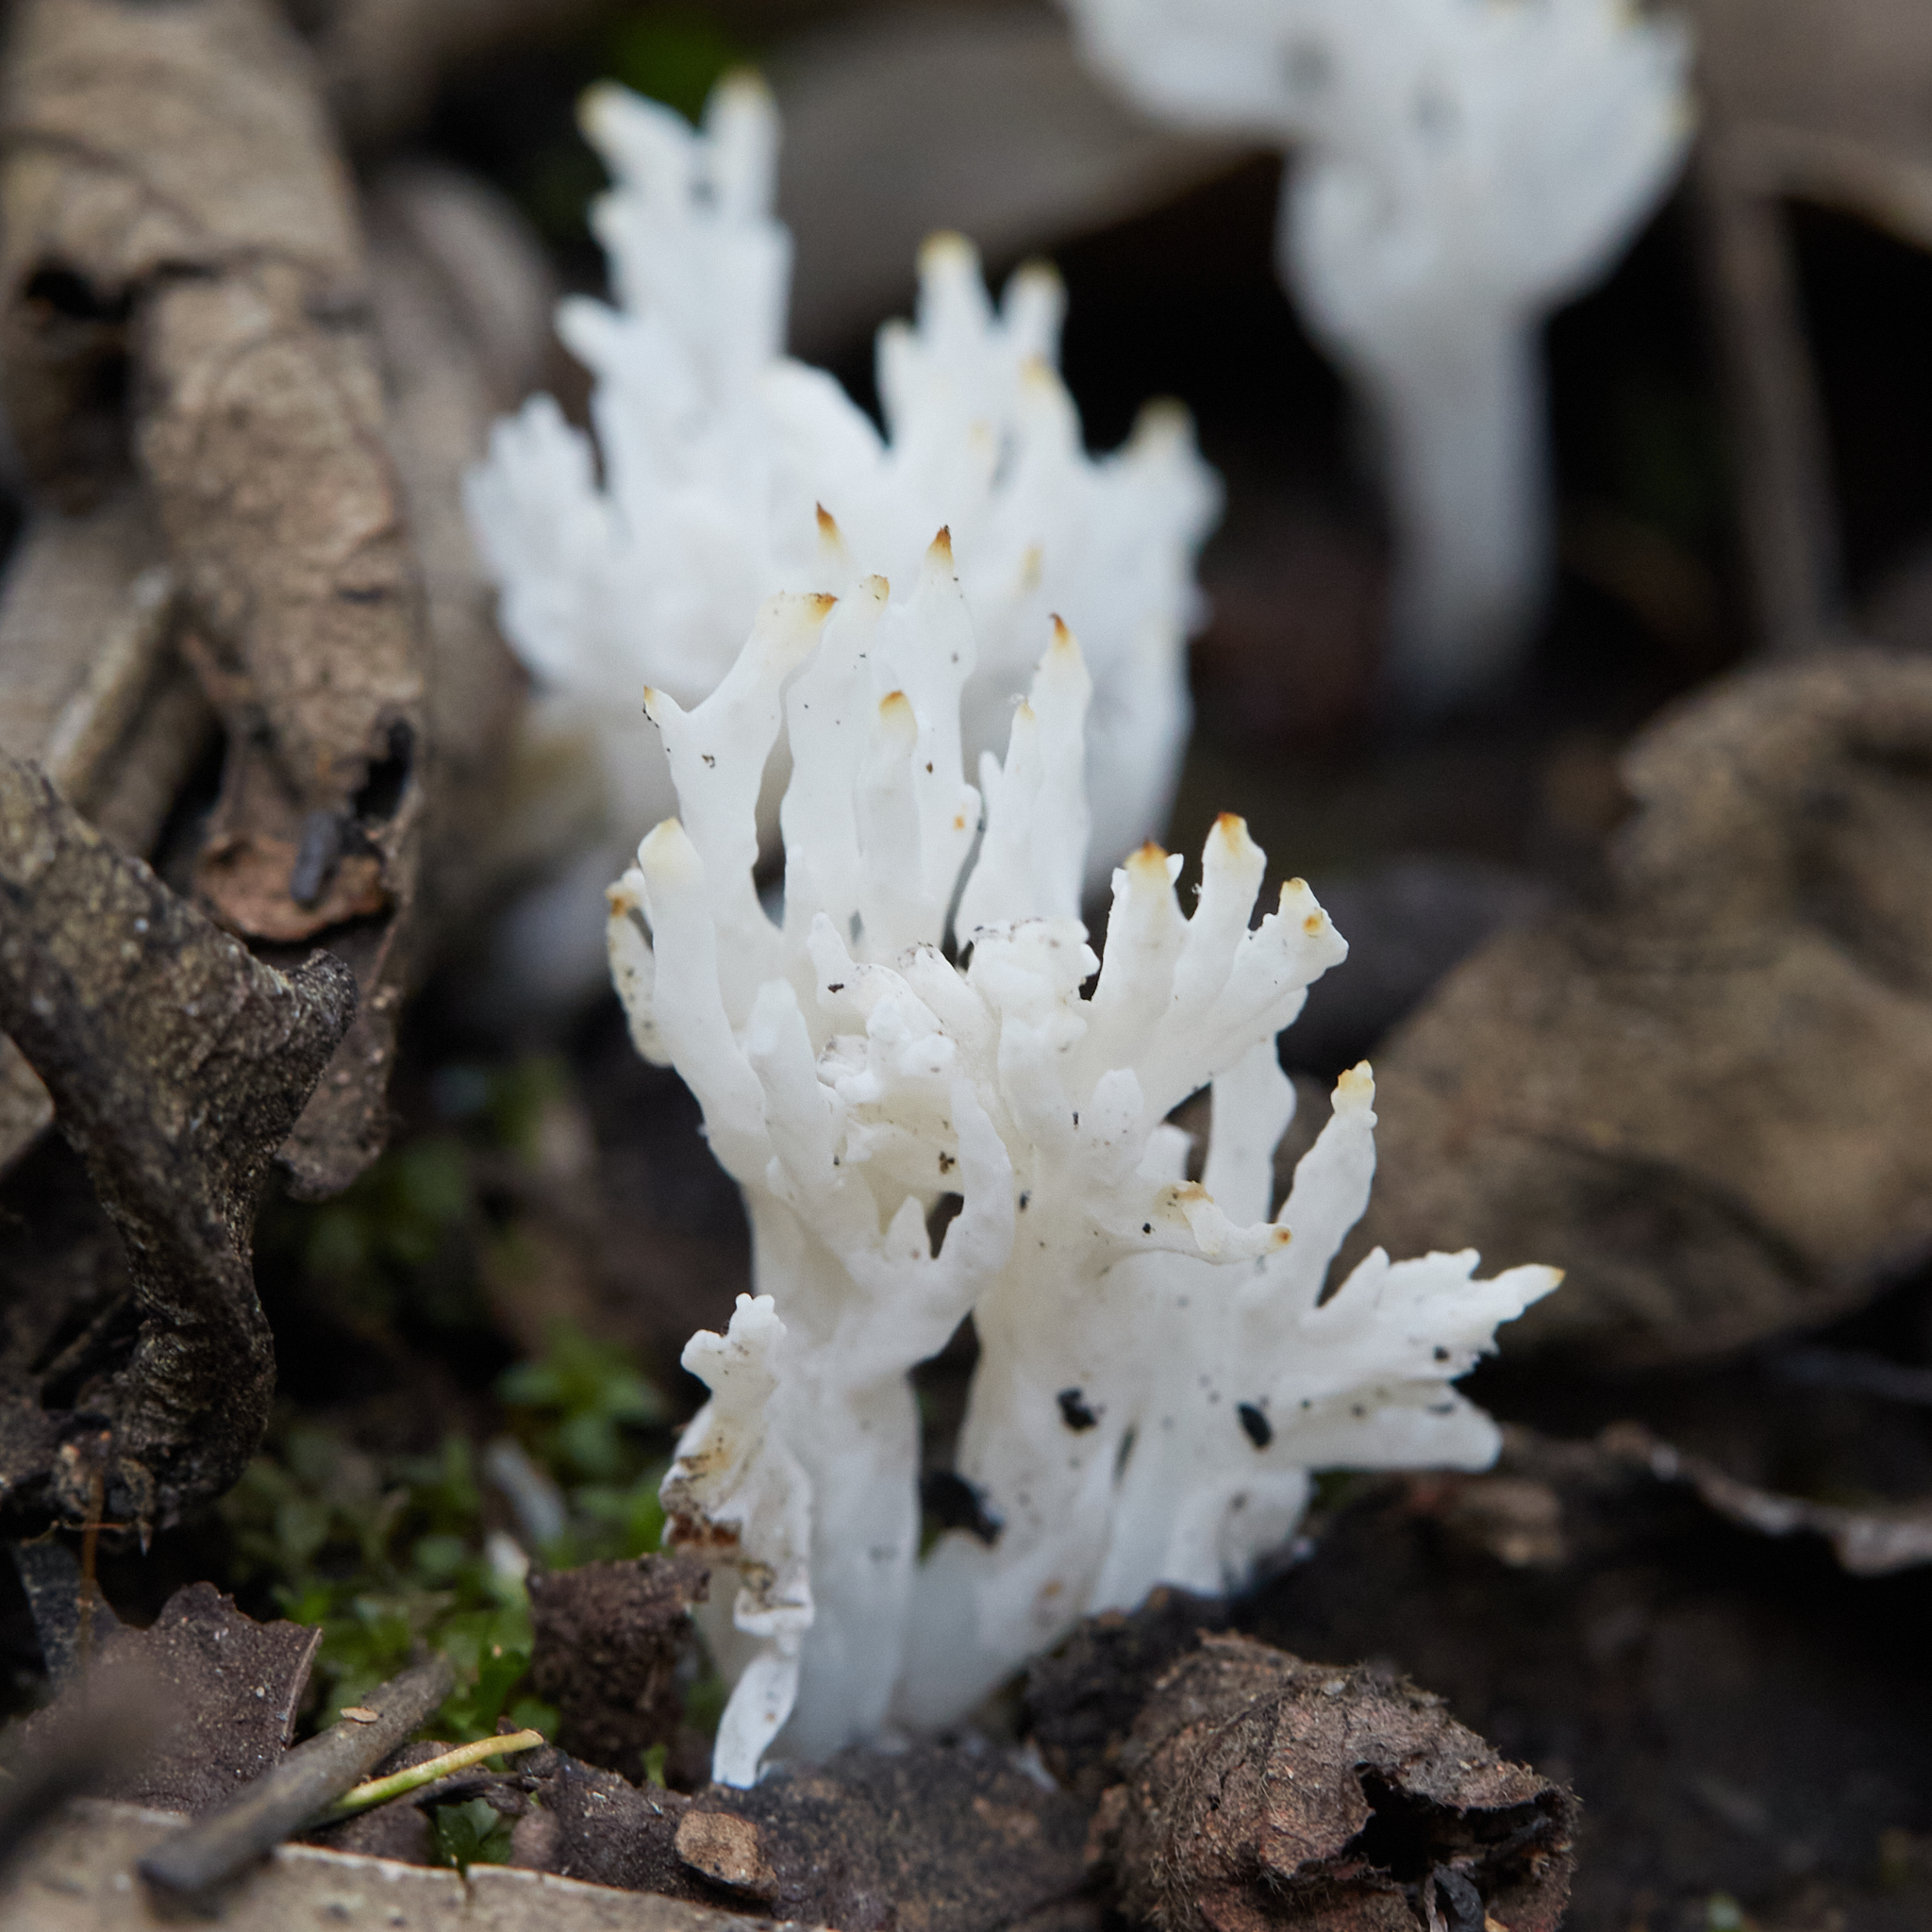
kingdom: Fungi
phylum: Basidiomycota
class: Agaricomycetes
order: Agaricales
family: Clavariaceae
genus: Ramariopsis
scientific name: Ramariopsis kunzei
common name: Ivory coral
